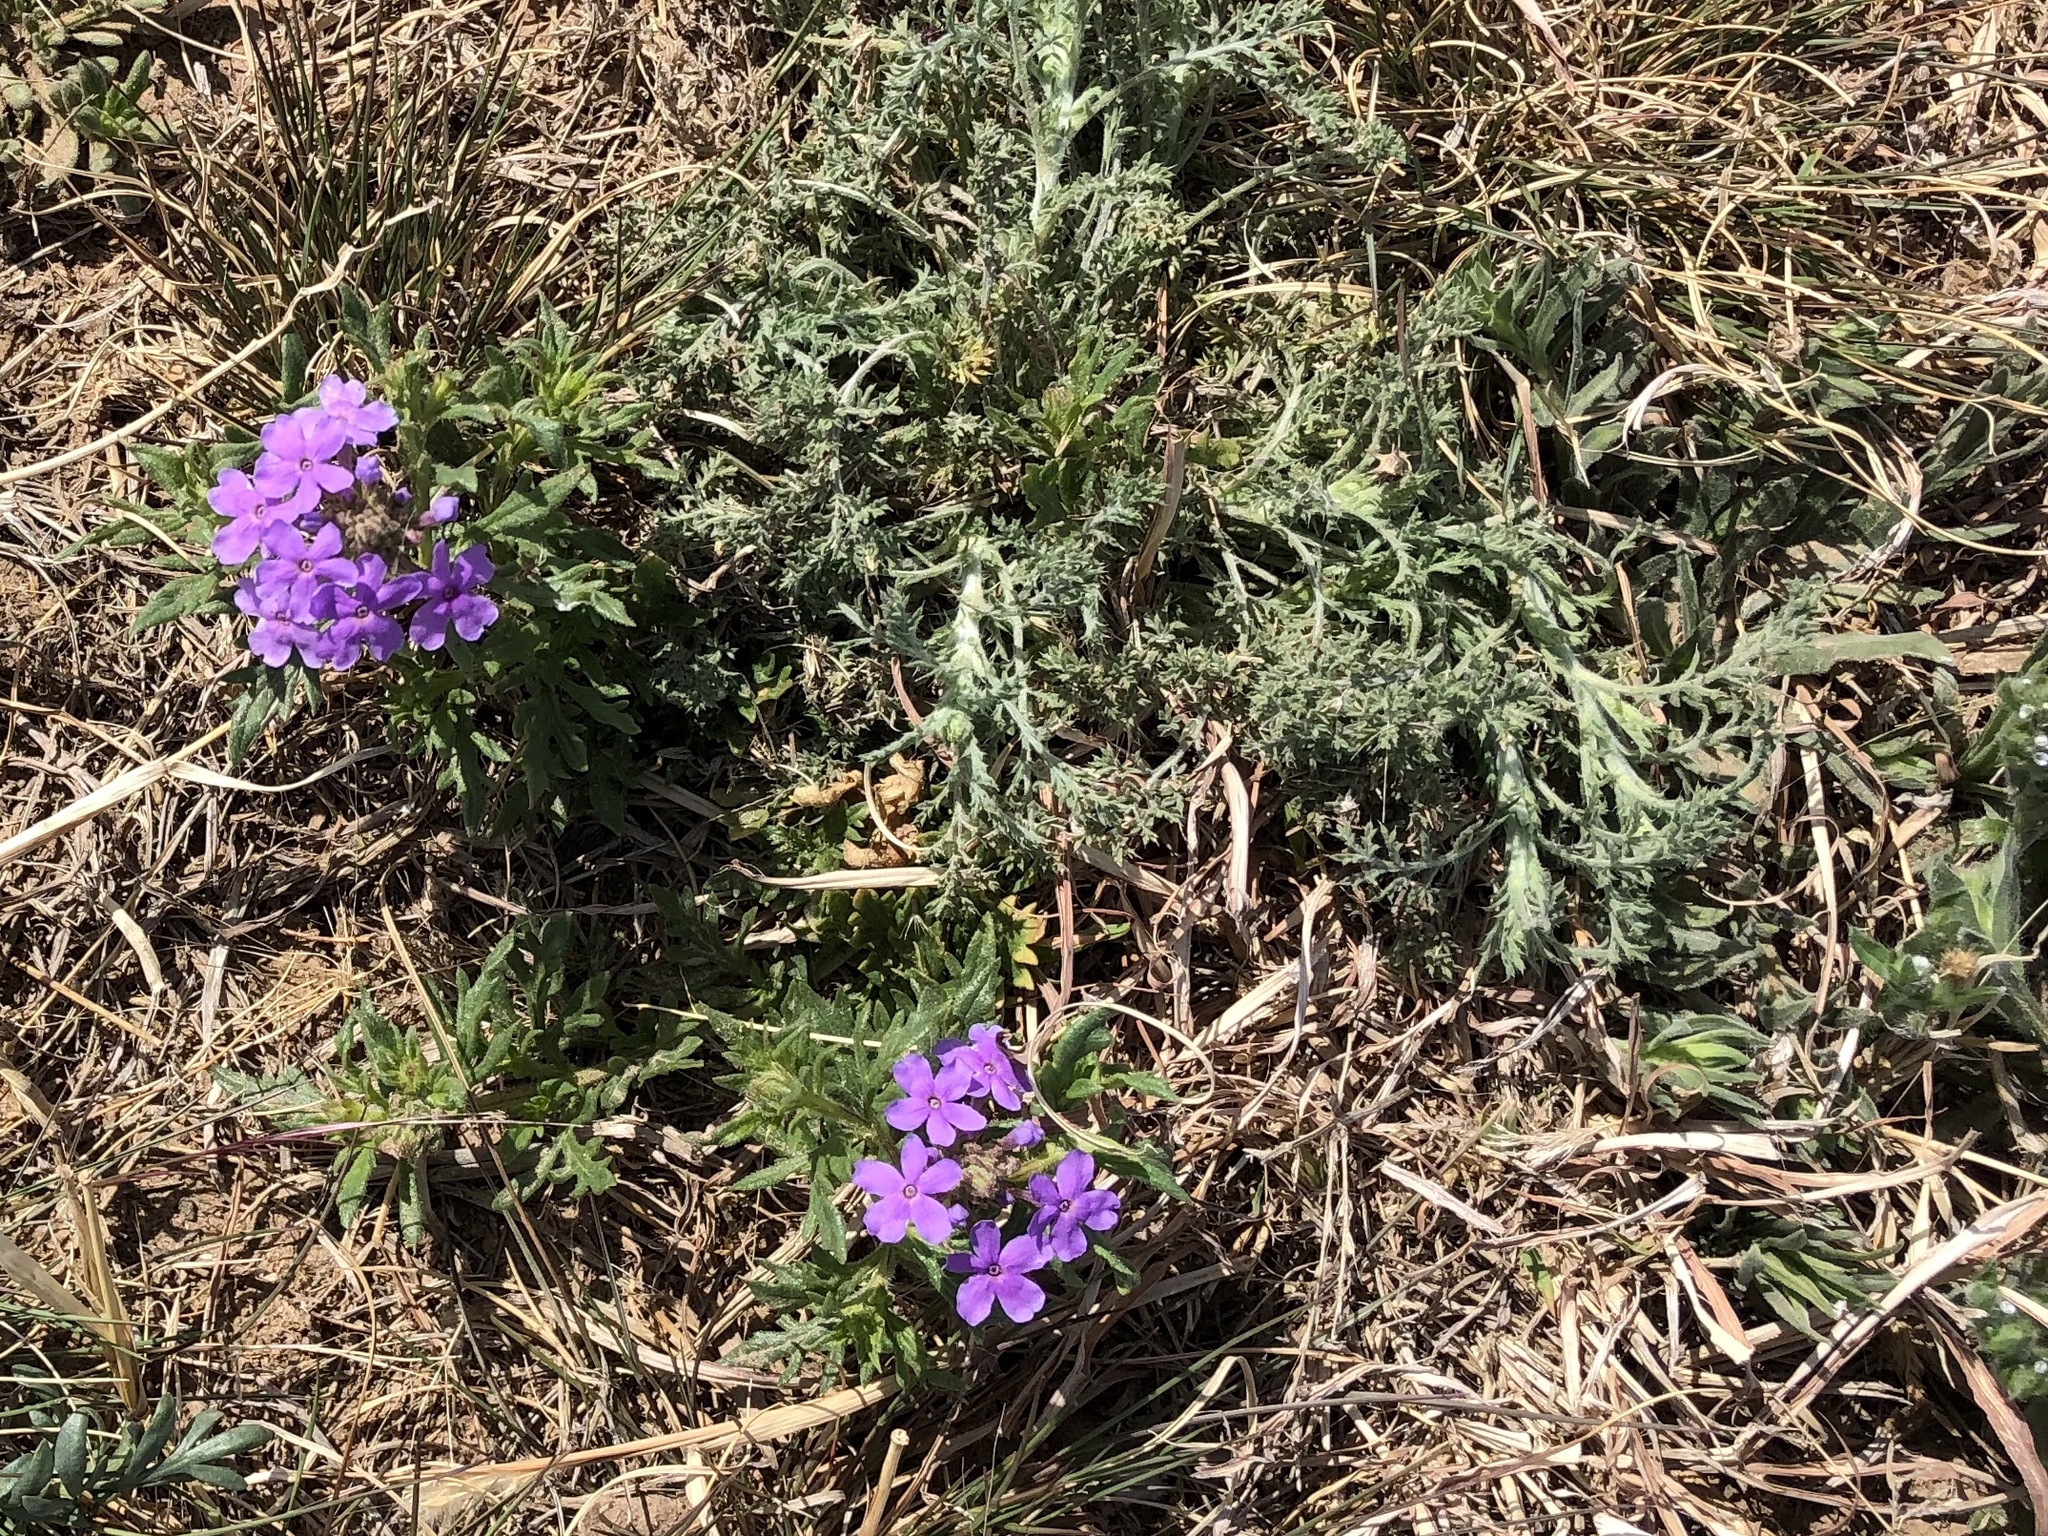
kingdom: Plantae
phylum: Tracheophyta
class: Magnoliopsida
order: Lamiales
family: Verbenaceae
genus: Verbena
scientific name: Verbena bipinnatifida
